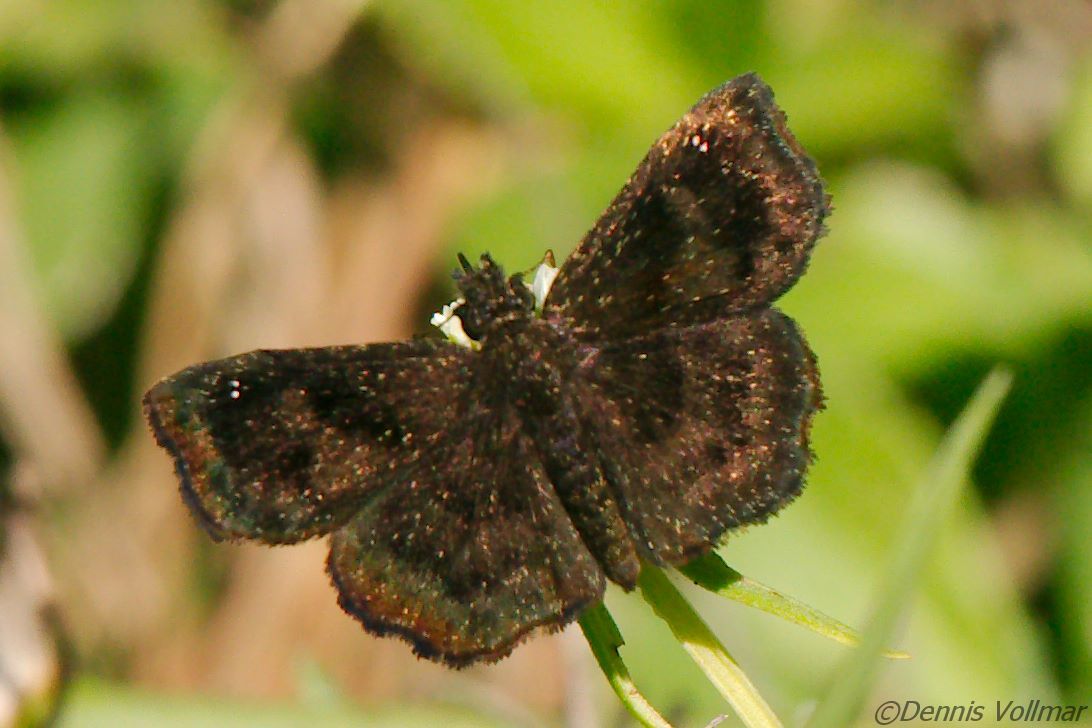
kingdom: Animalia
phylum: Arthropoda
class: Insecta
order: Lepidoptera
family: Hesperiidae
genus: Staphylus
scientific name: Staphylus mazans
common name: Mazans scallopwing
